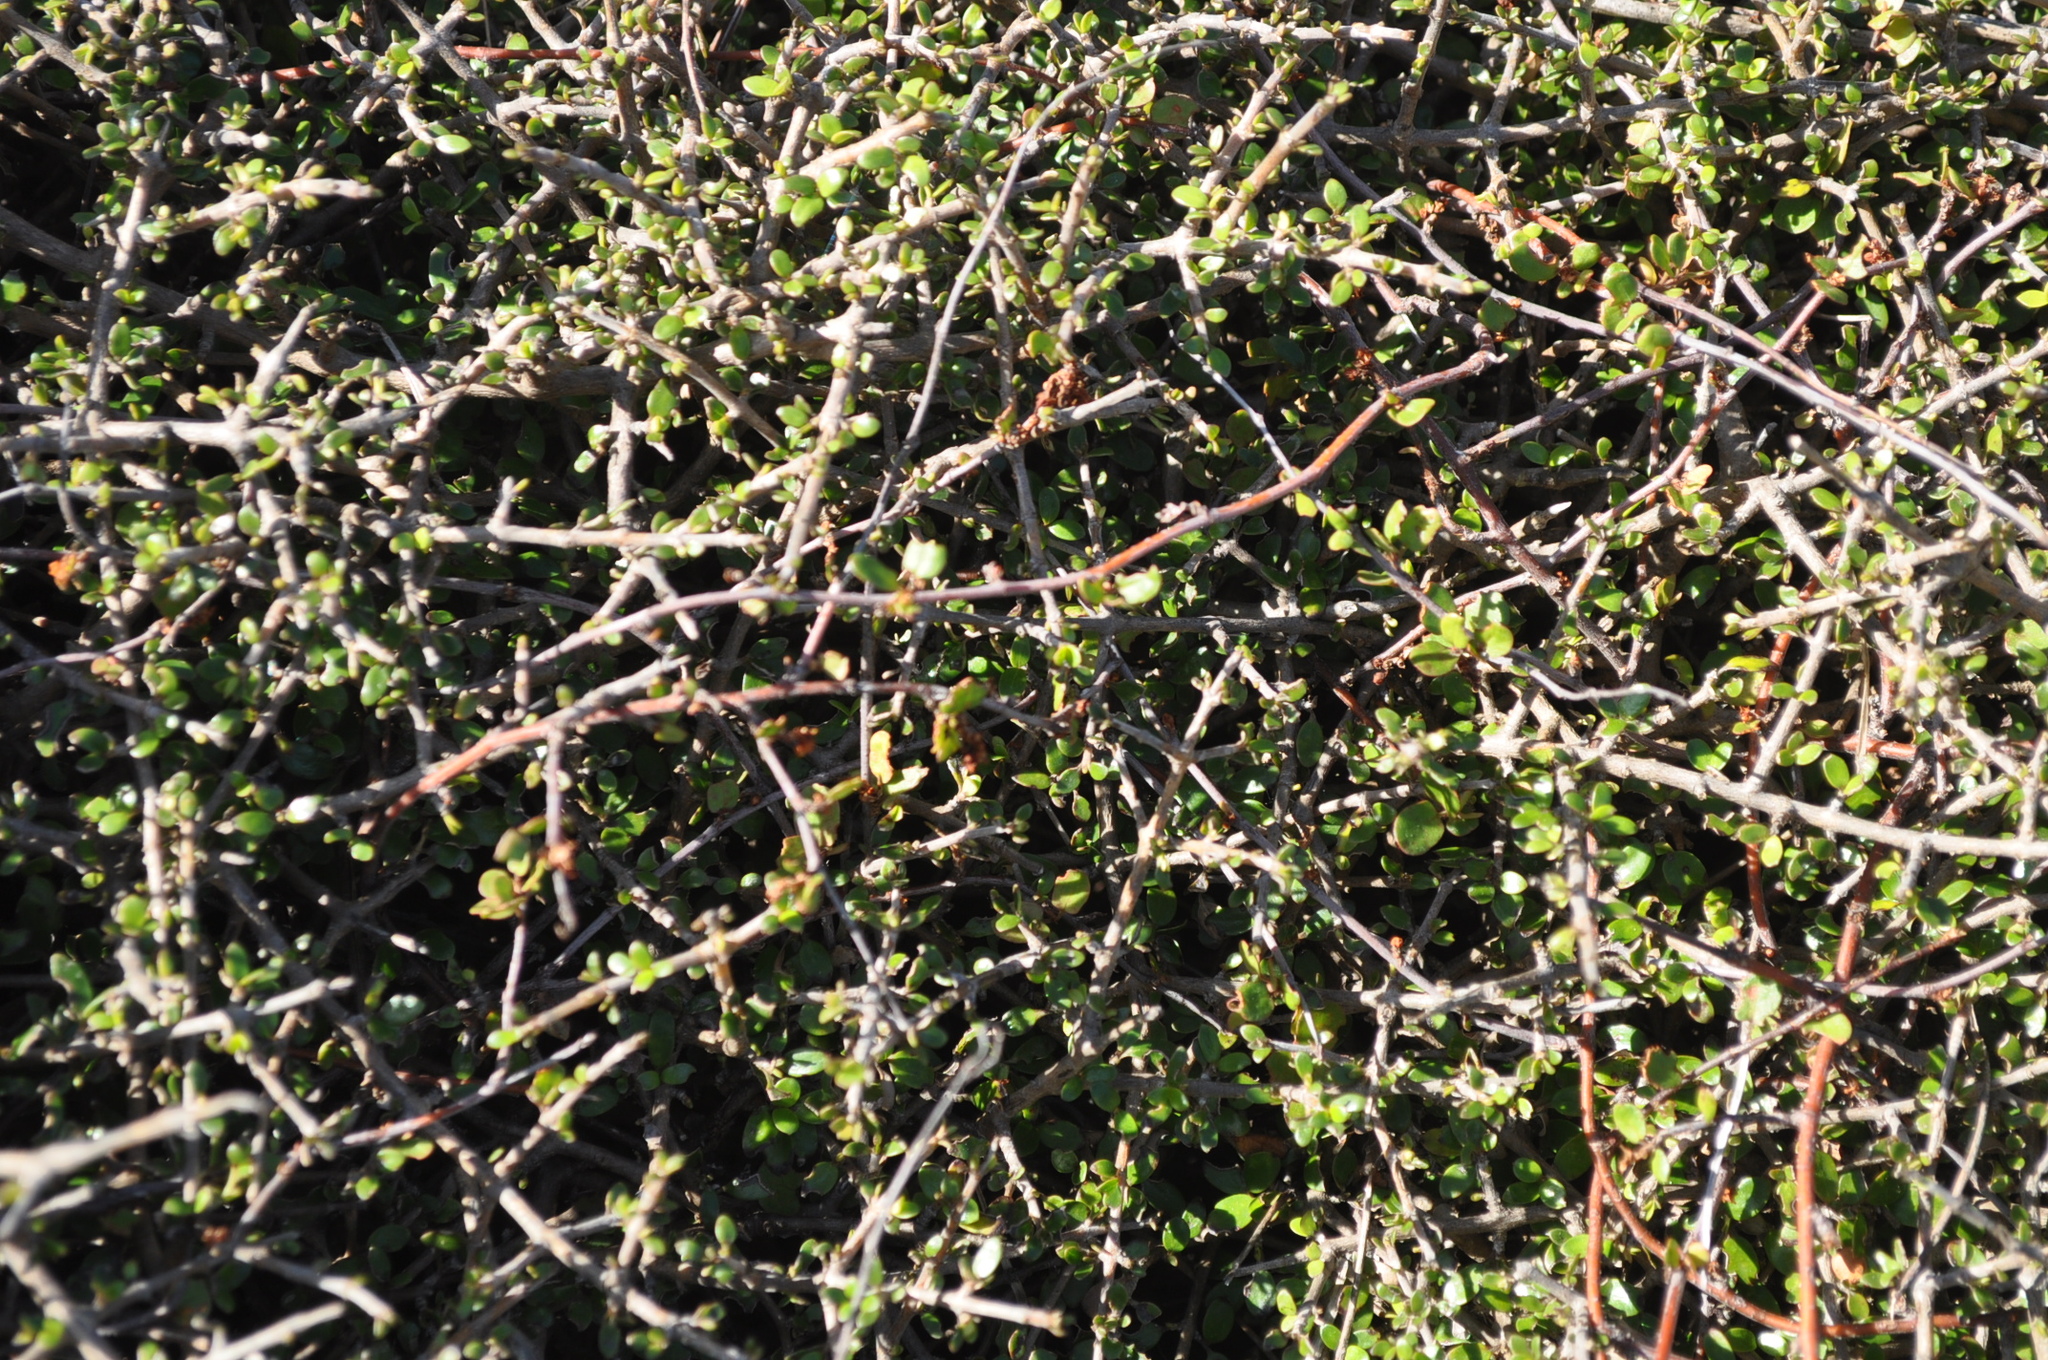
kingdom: Plantae
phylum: Tracheophyta
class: Magnoliopsida
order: Gentianales
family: Rubiaceae
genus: Coprosma
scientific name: Coprosma propinqua
